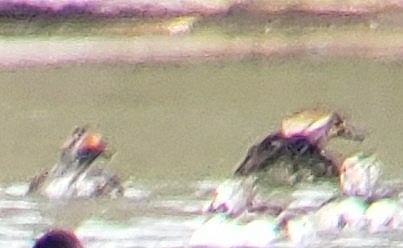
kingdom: Animalia
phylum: Chordata
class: Aves
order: Anseriformes
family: Anatidae
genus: Lophodytes
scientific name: Lophodytes cucullatus
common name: Hooded merganser
